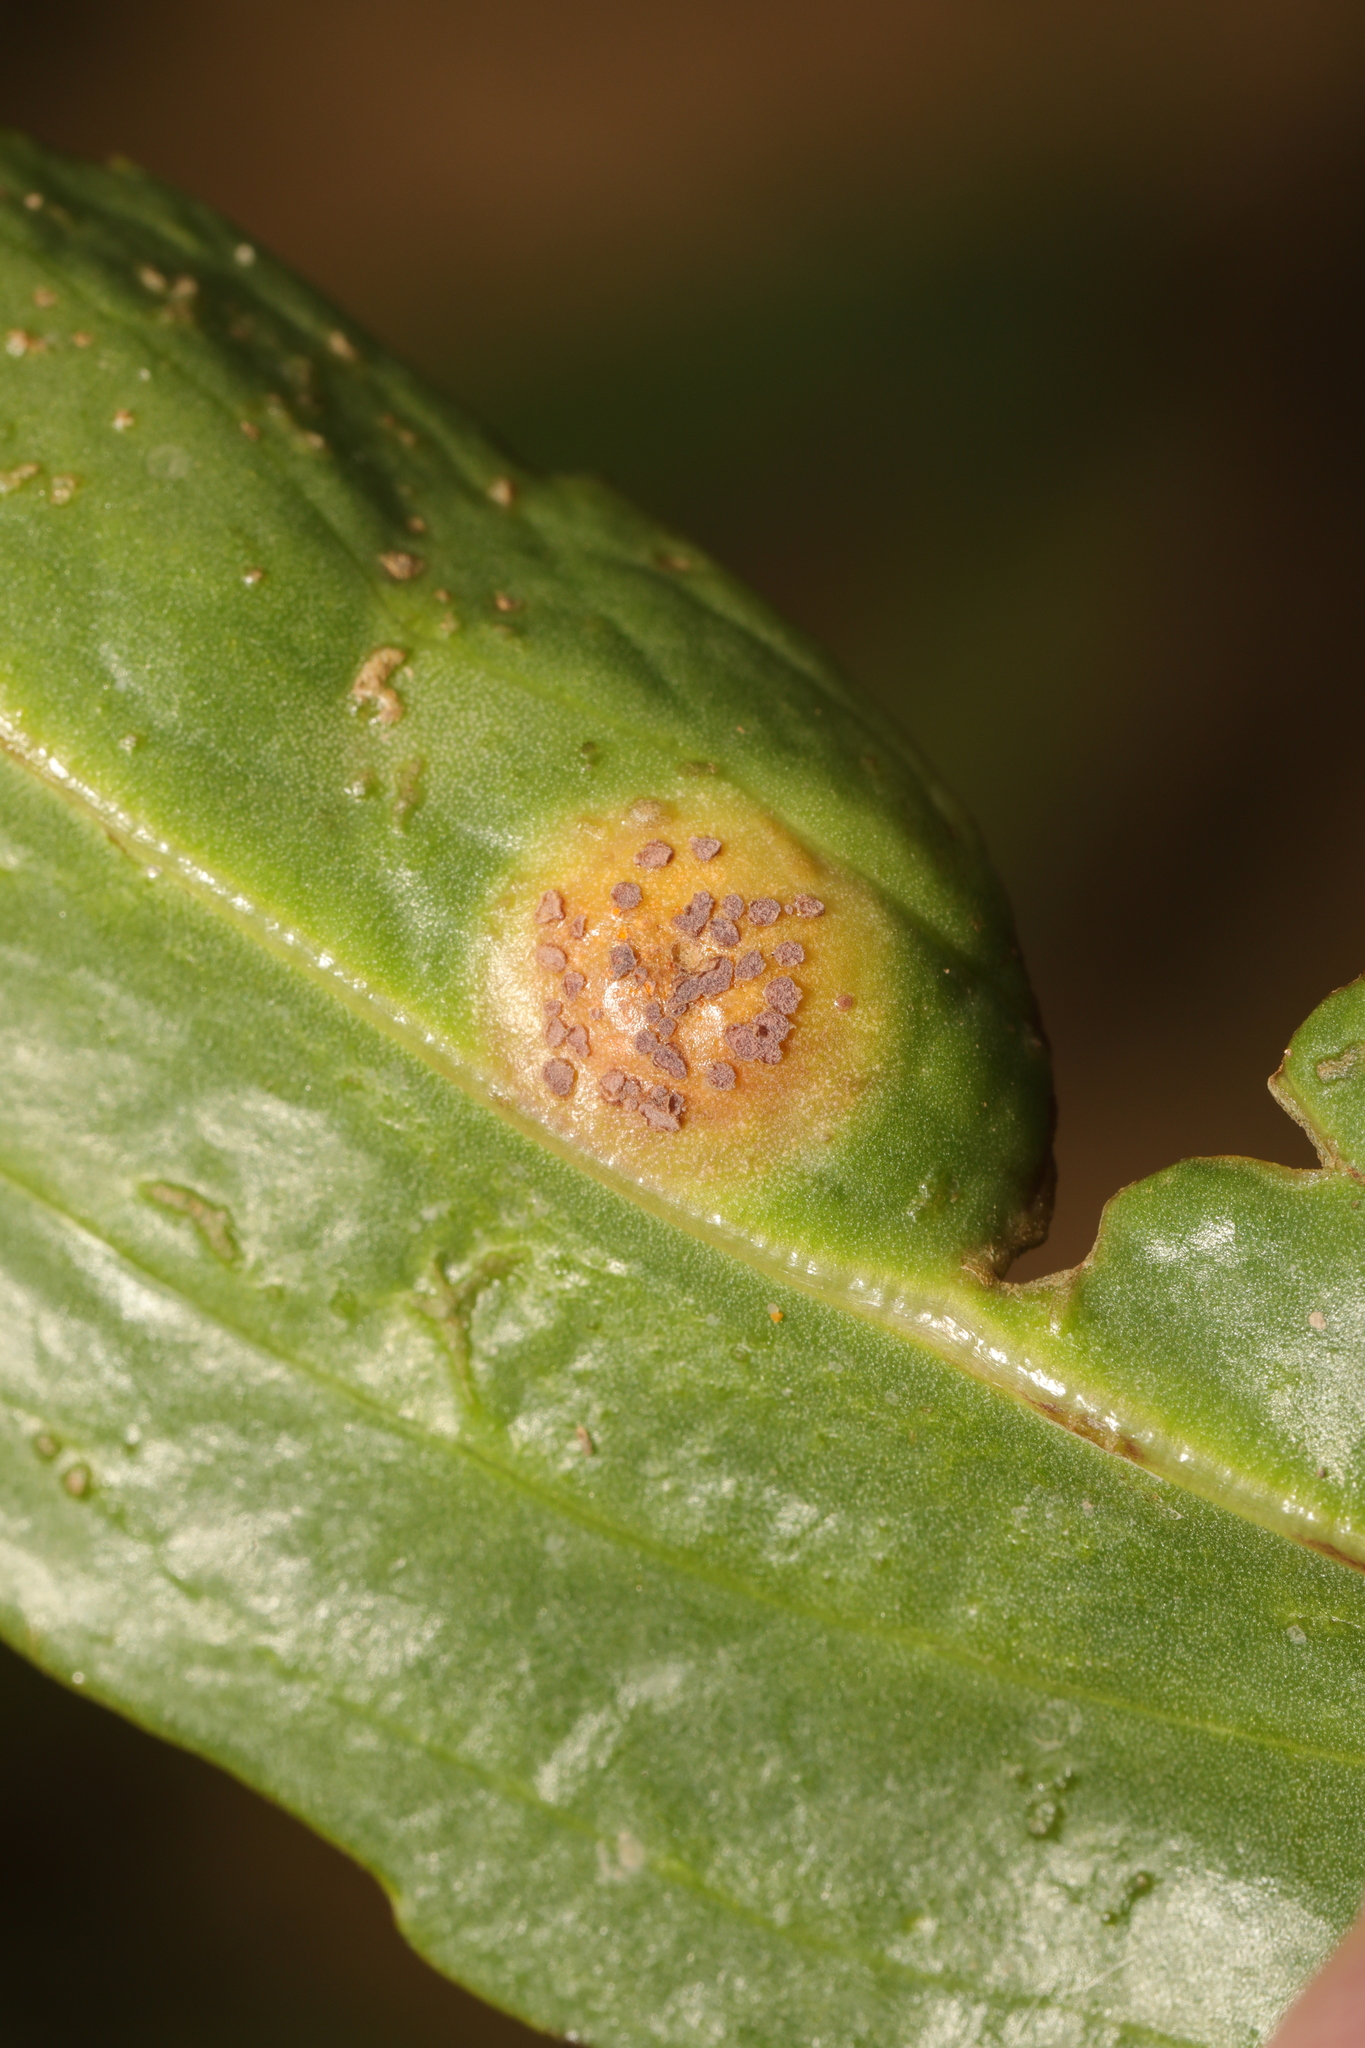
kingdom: Fungi
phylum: Basidiomycota
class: Pucciniomycetes
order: Pucciniales
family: Pucciniaceae
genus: Puccinia
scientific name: Puccinia dioicae
